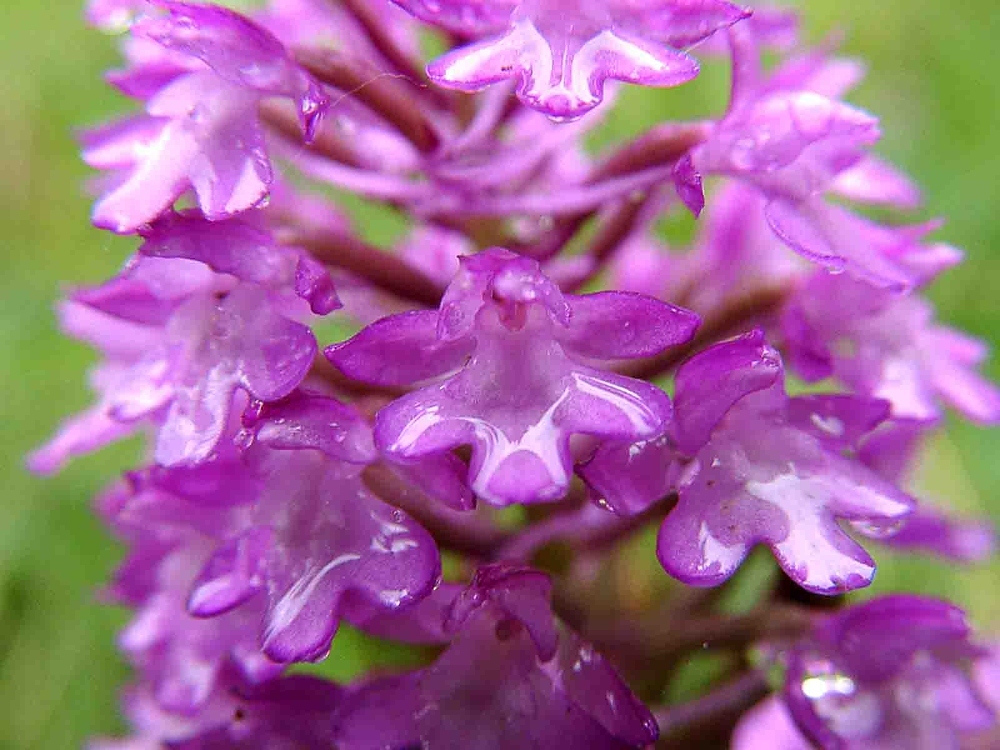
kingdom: Plantae
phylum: Tracheophyta
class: Liliopsida
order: Asparagales
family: Orchidaceae
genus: Anacamptis
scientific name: Anacamptis pyramidalis
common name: Pyramidal orchid
